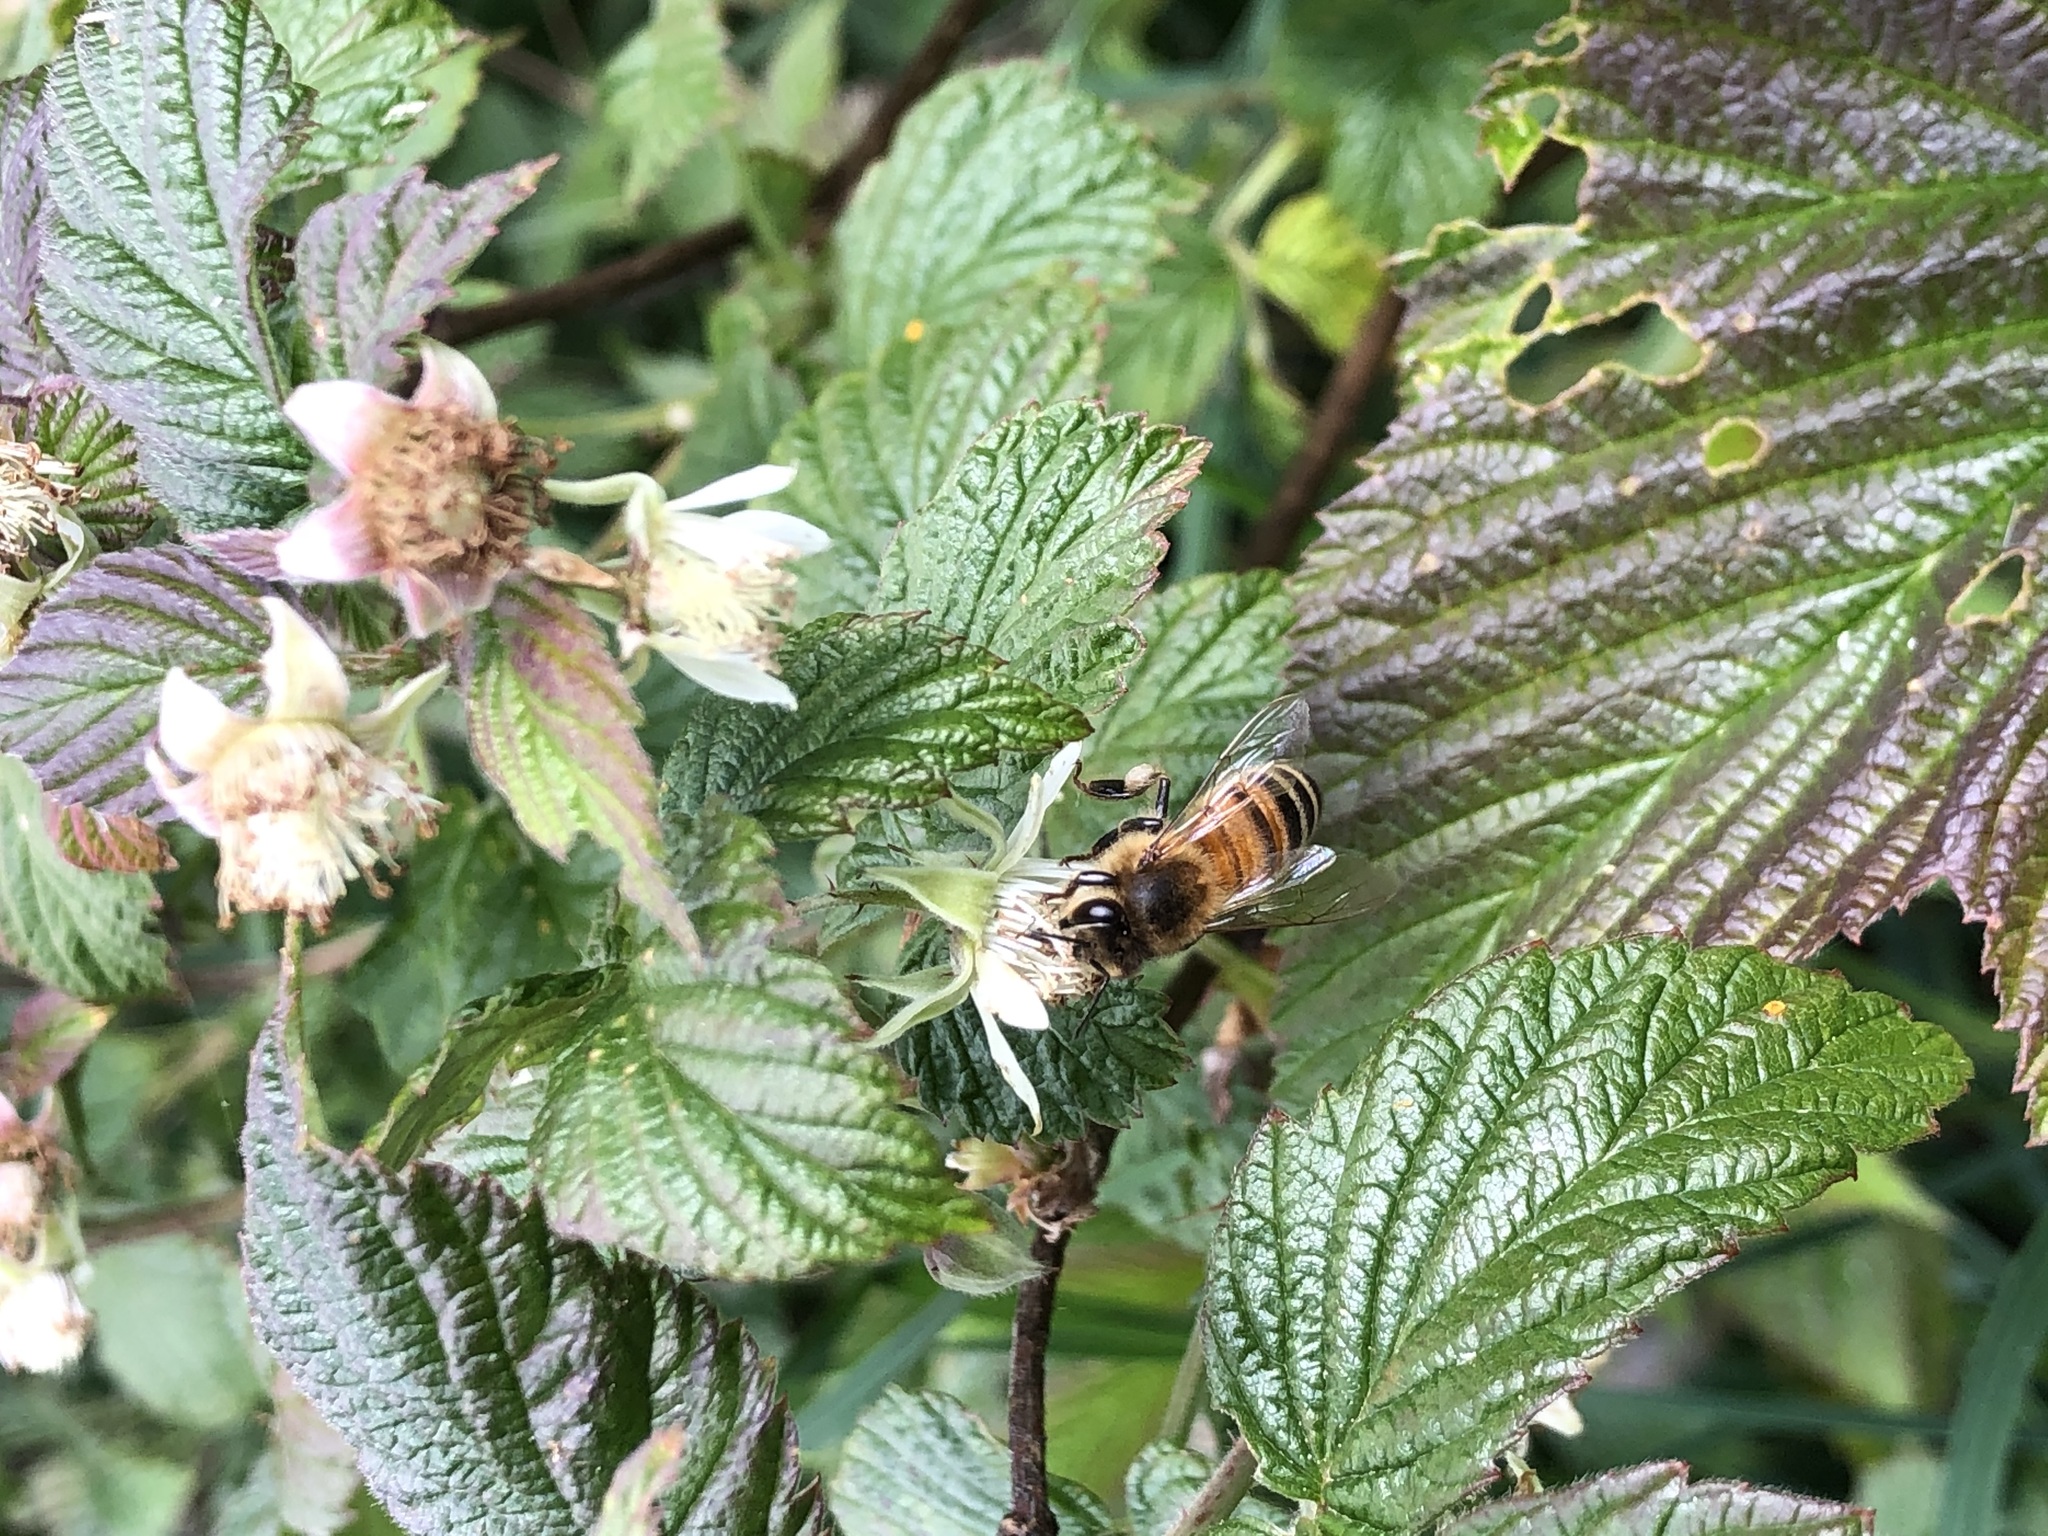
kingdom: Animalia
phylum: Arthropoda
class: Insecta
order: Hymenoptera
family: Apidae
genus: Apis
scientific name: Apis mellifera
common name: Honey bee
